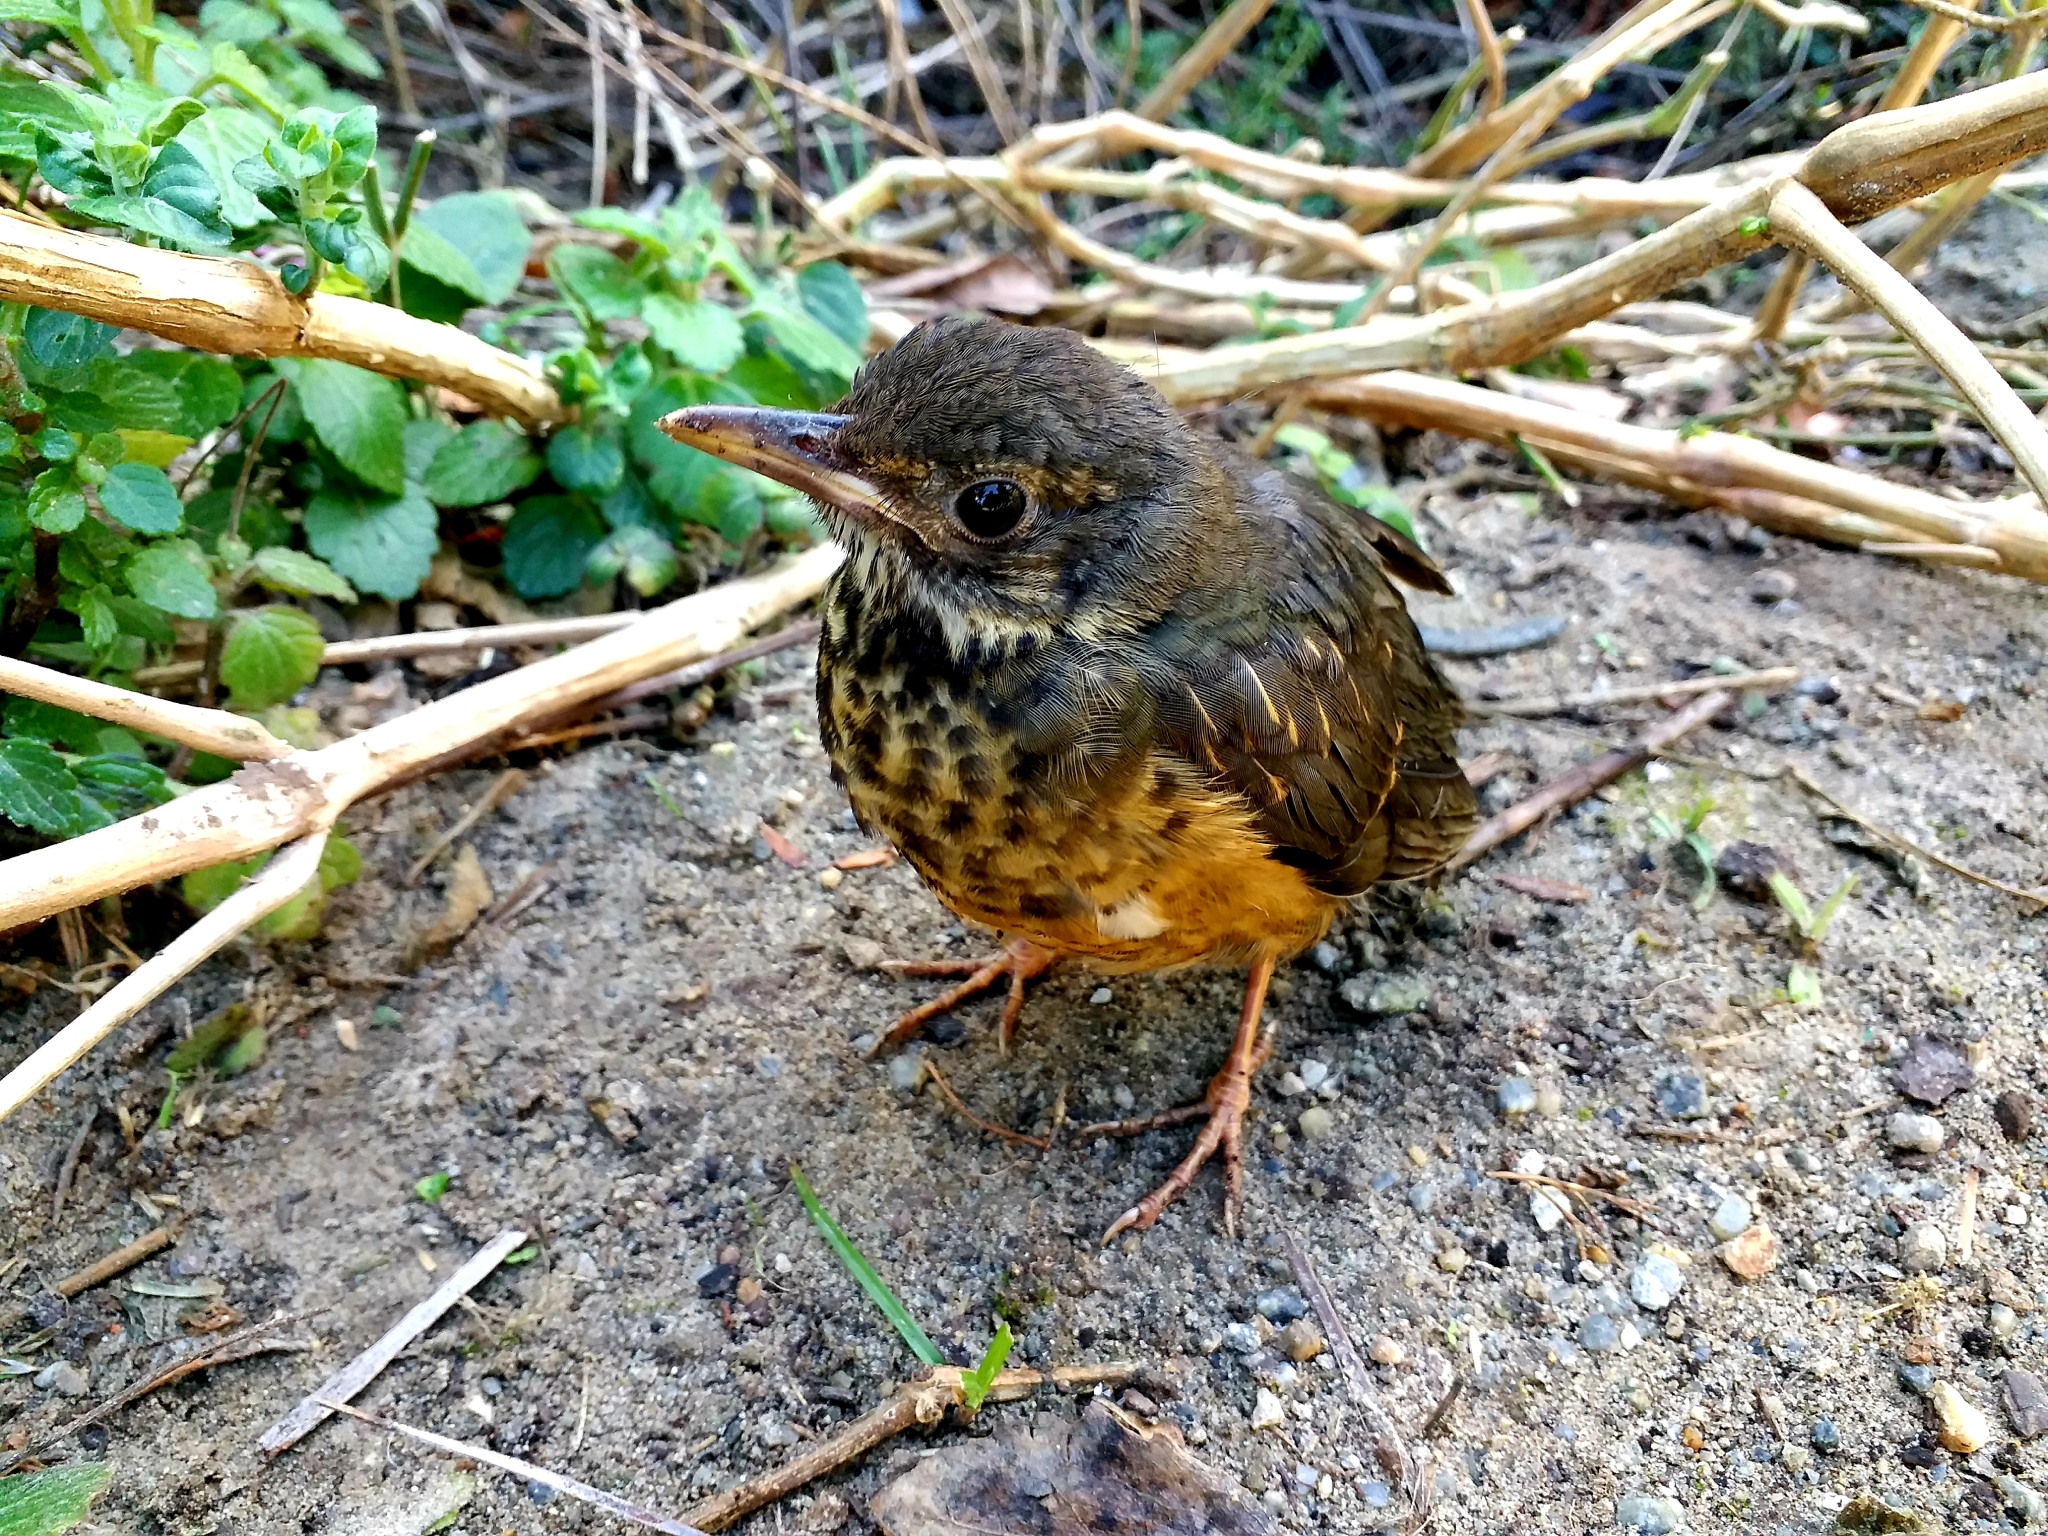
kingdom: Animalia
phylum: Chordata
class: Aves
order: Passeriformes
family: Turdidae
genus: Turdus
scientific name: Turdus olivaceus
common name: Olive thrush
